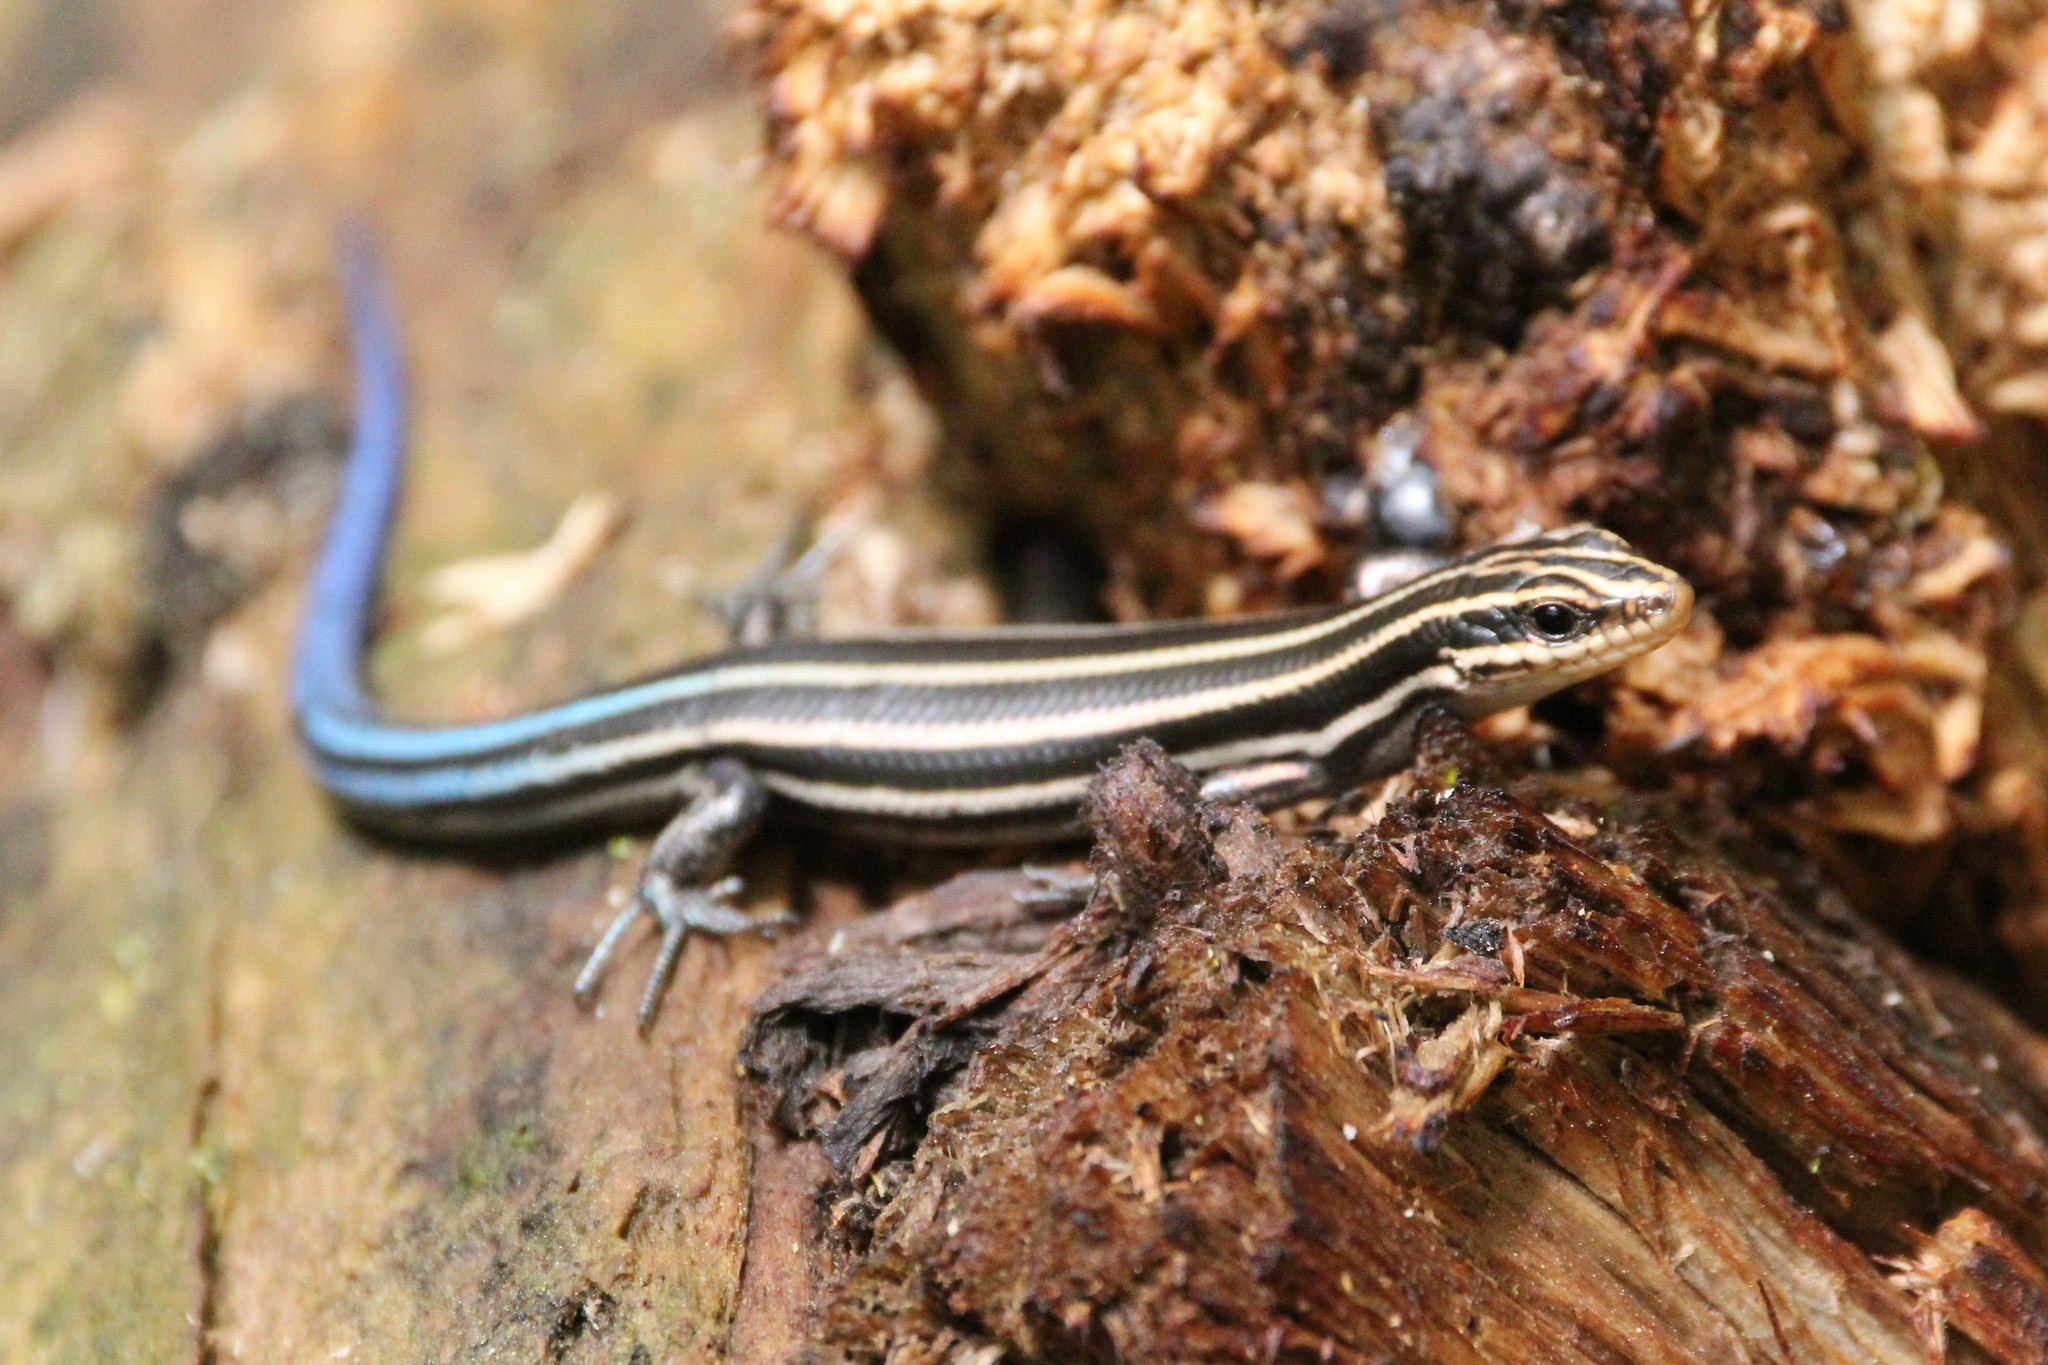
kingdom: Animalia
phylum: Chordata
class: Squamata
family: Scincidae
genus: Plestiodon
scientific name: Plestiodon fasciatus
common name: Five-lined skink
